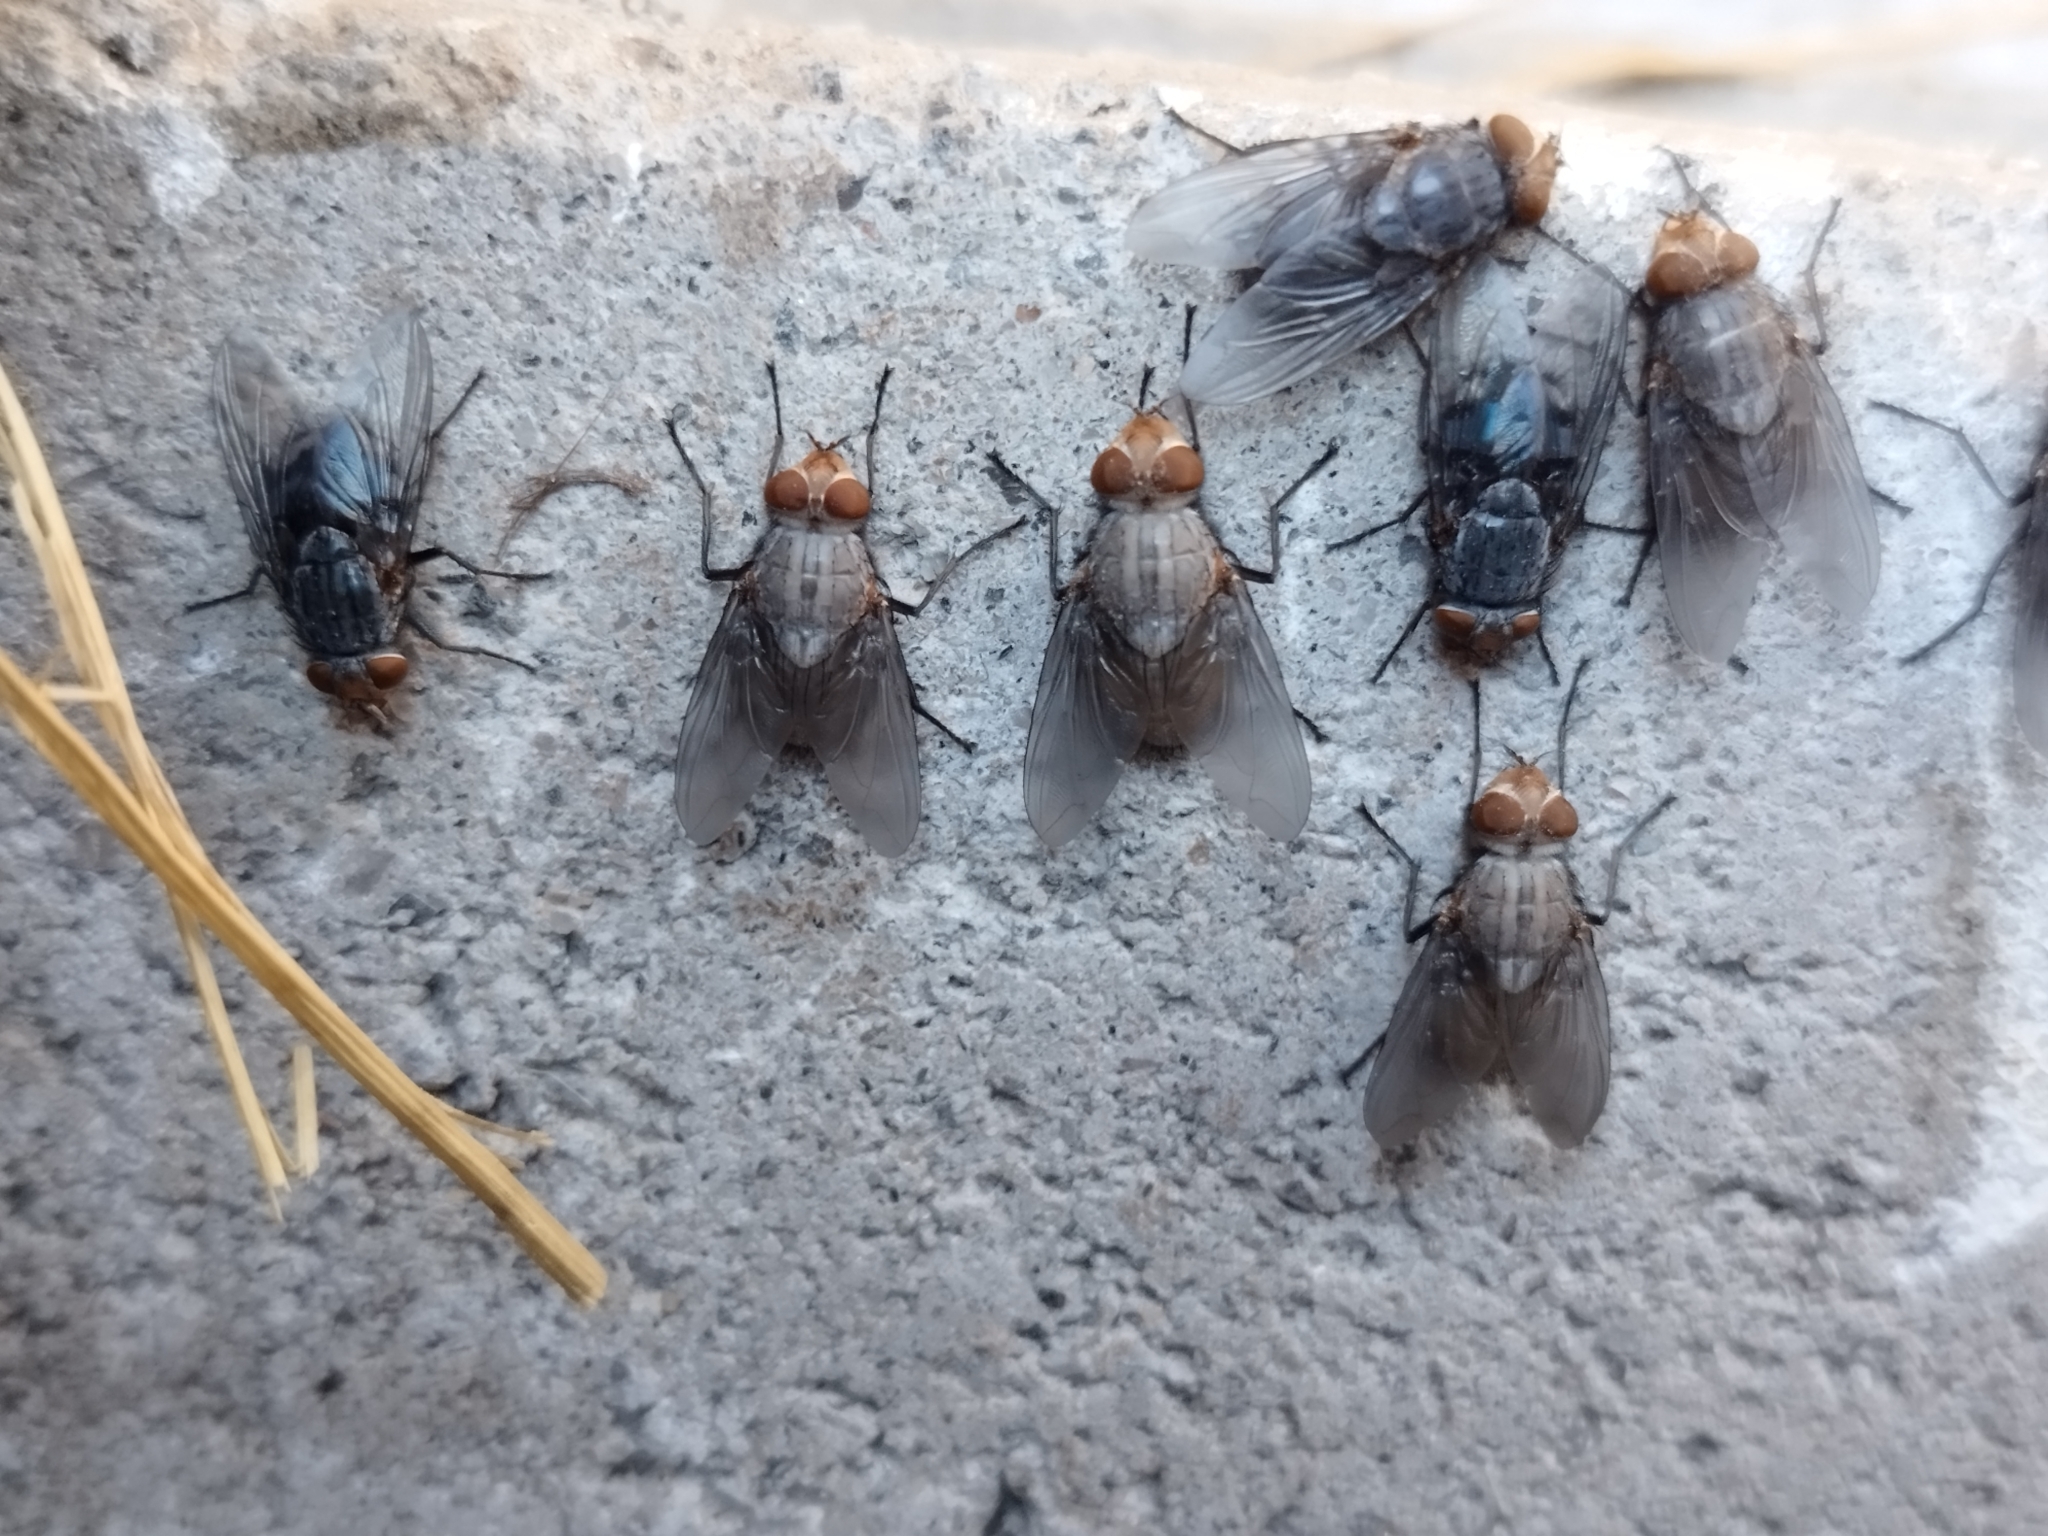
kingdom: Animalia
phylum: Arthropoda
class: Insecta
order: Diptera
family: Calliphoridae
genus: Calliphora
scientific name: Calliphora vicina
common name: Common blow flie
